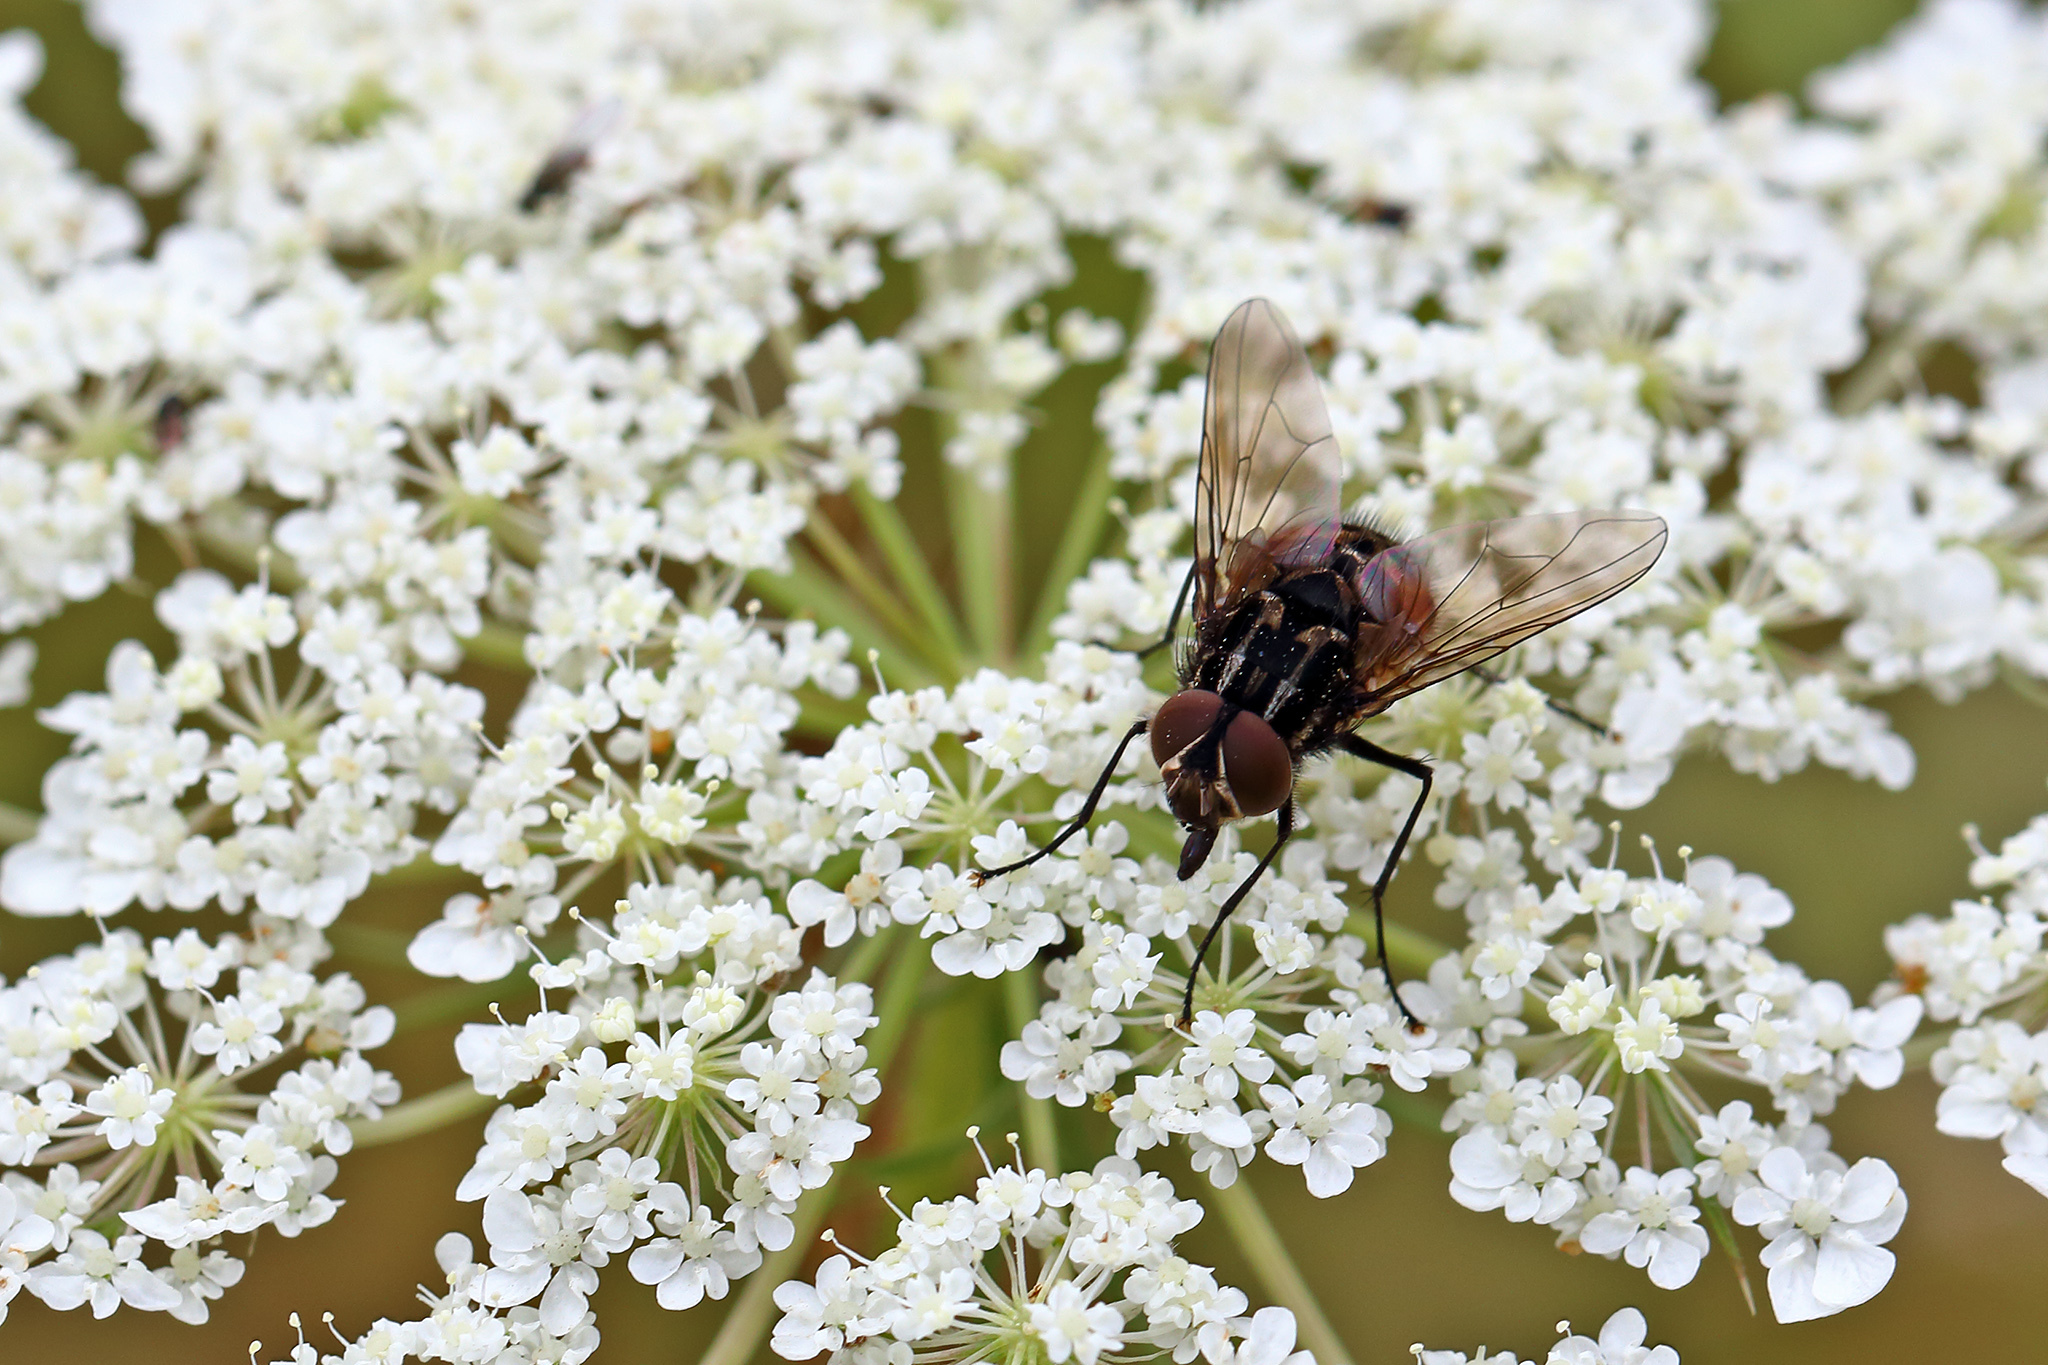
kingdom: Animalia
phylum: Arthropoda
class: Insecta
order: Diptera
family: Muscidae
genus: Graphomya
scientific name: Graphomya maculata
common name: Muscid fly
